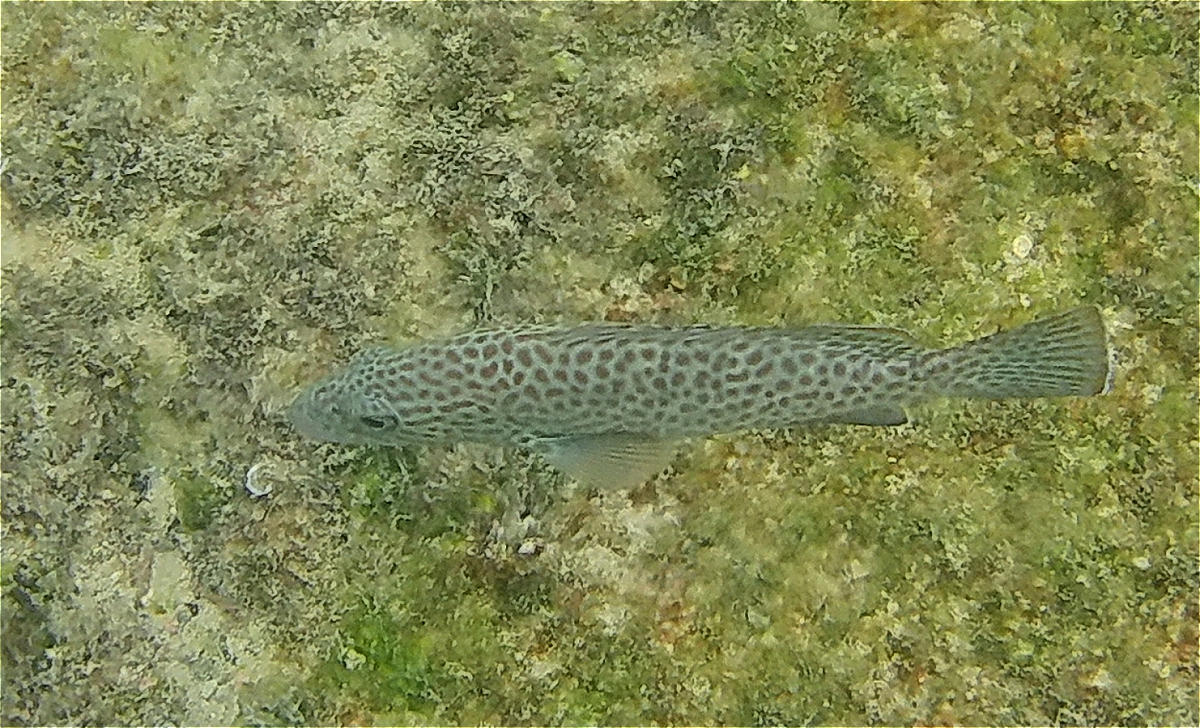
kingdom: Animalia
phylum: Chordata
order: Perciformes
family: Serranidae
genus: Epinephelus
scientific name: Epinephelus analogus
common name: Spotted cabrilla
